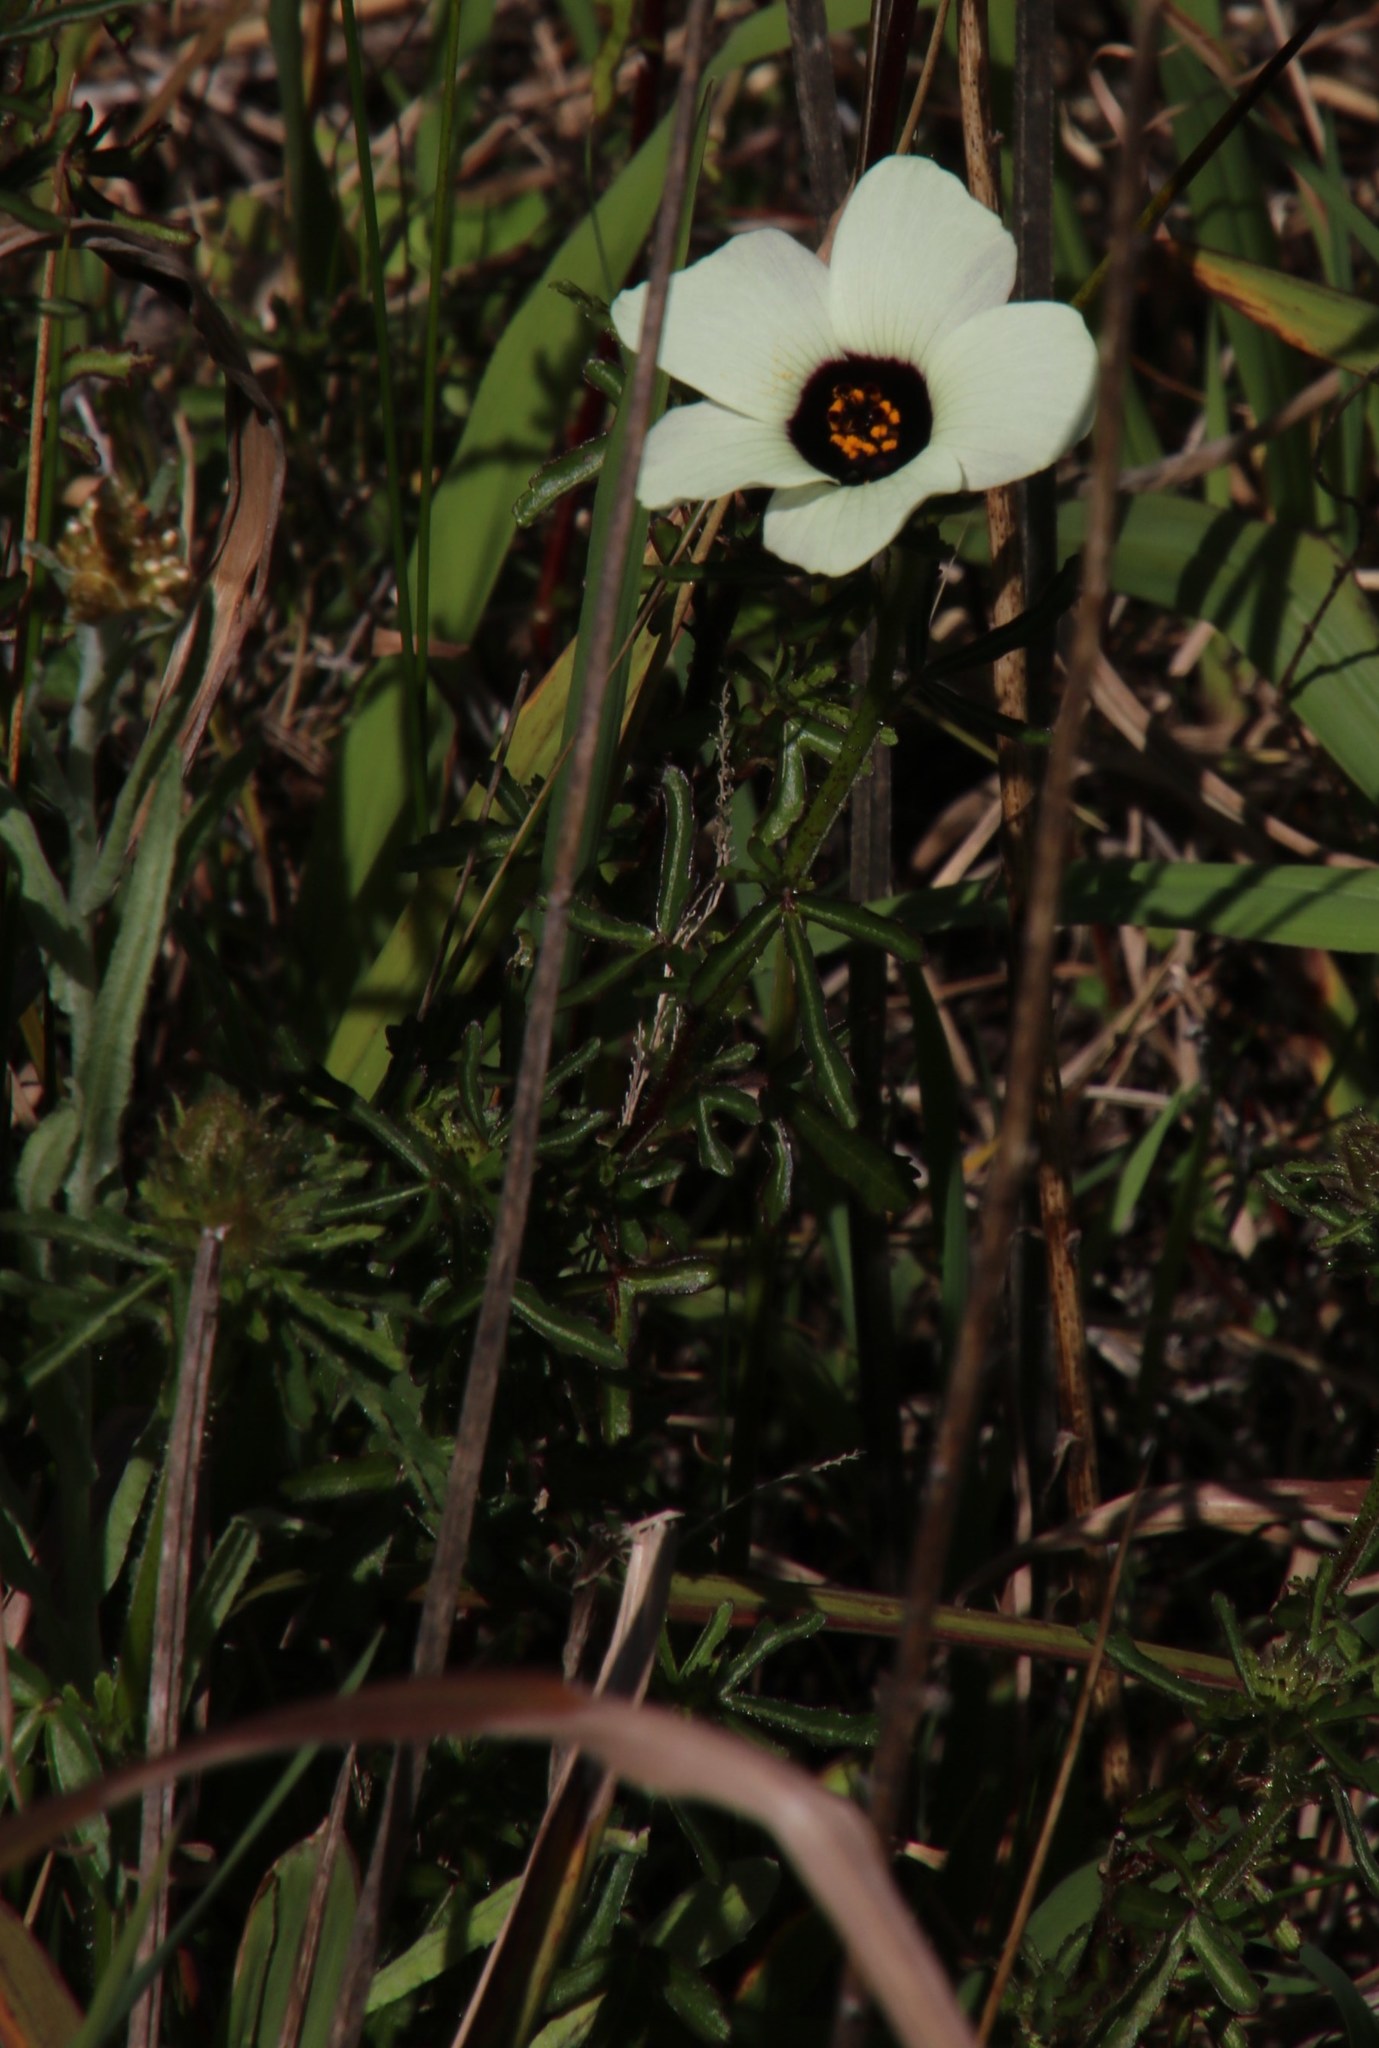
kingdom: Plantae
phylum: Tracheophyta
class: Magnoliopsida
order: Malvales
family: Malvaceae
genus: Hibiscus
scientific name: Hibiscus trionum
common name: Bladder ketmia
